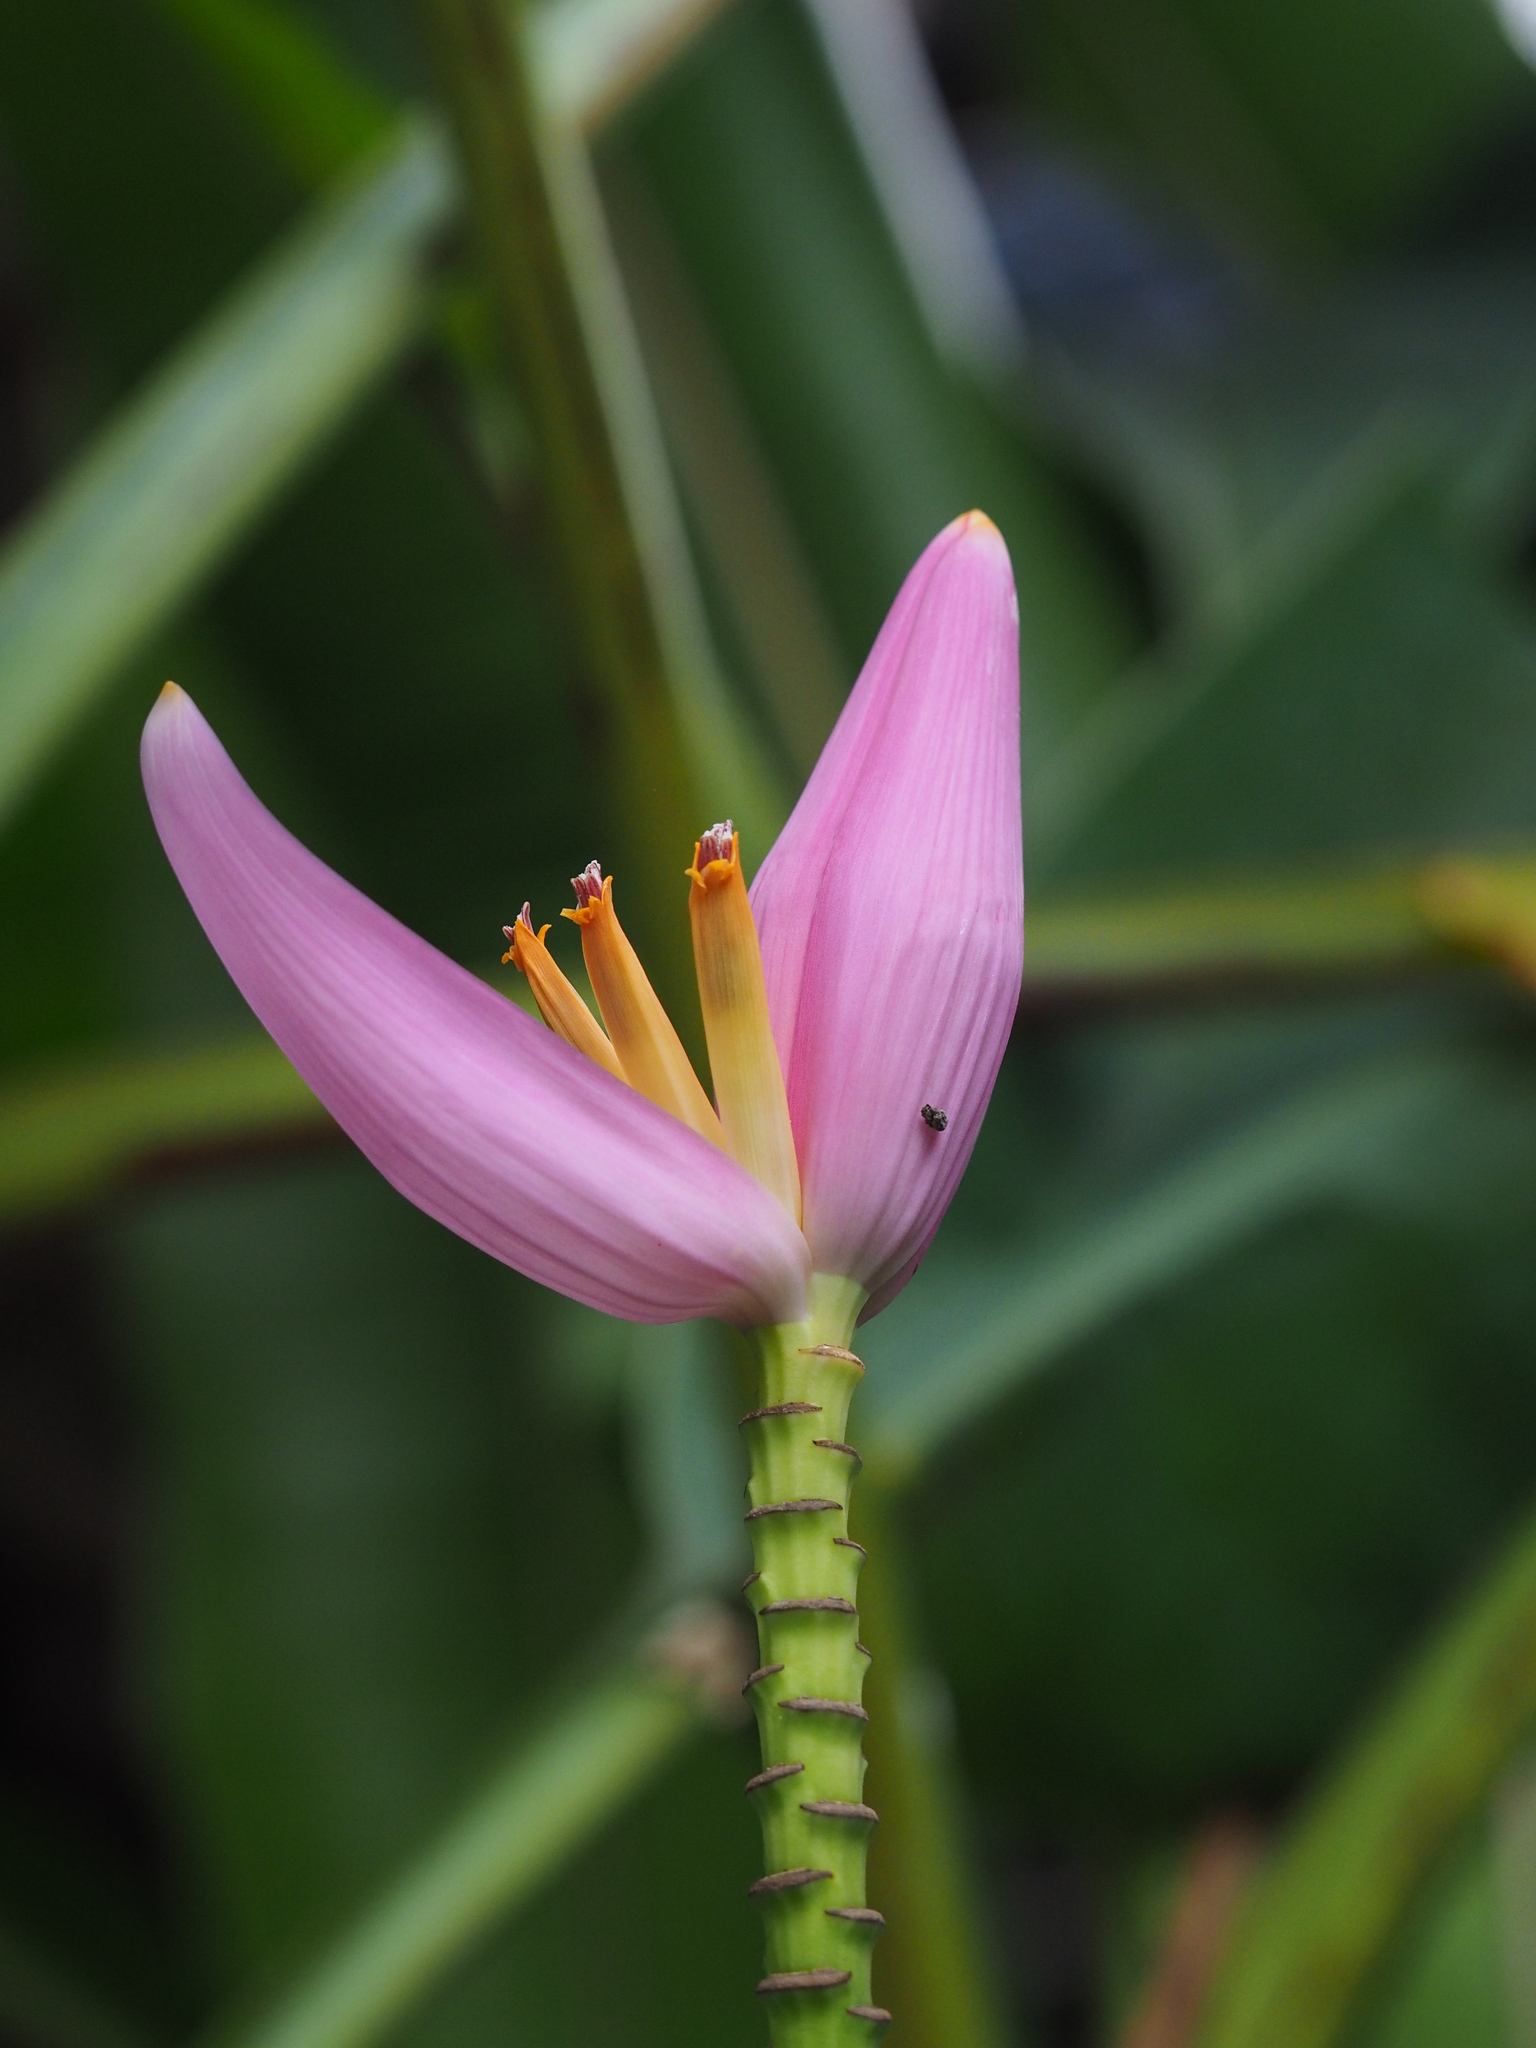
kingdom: Plantae
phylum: Tracheophyta
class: Liliopsida
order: Zingiberales
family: Musaceae
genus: Musa
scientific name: Musa ornata
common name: Flowering banana
